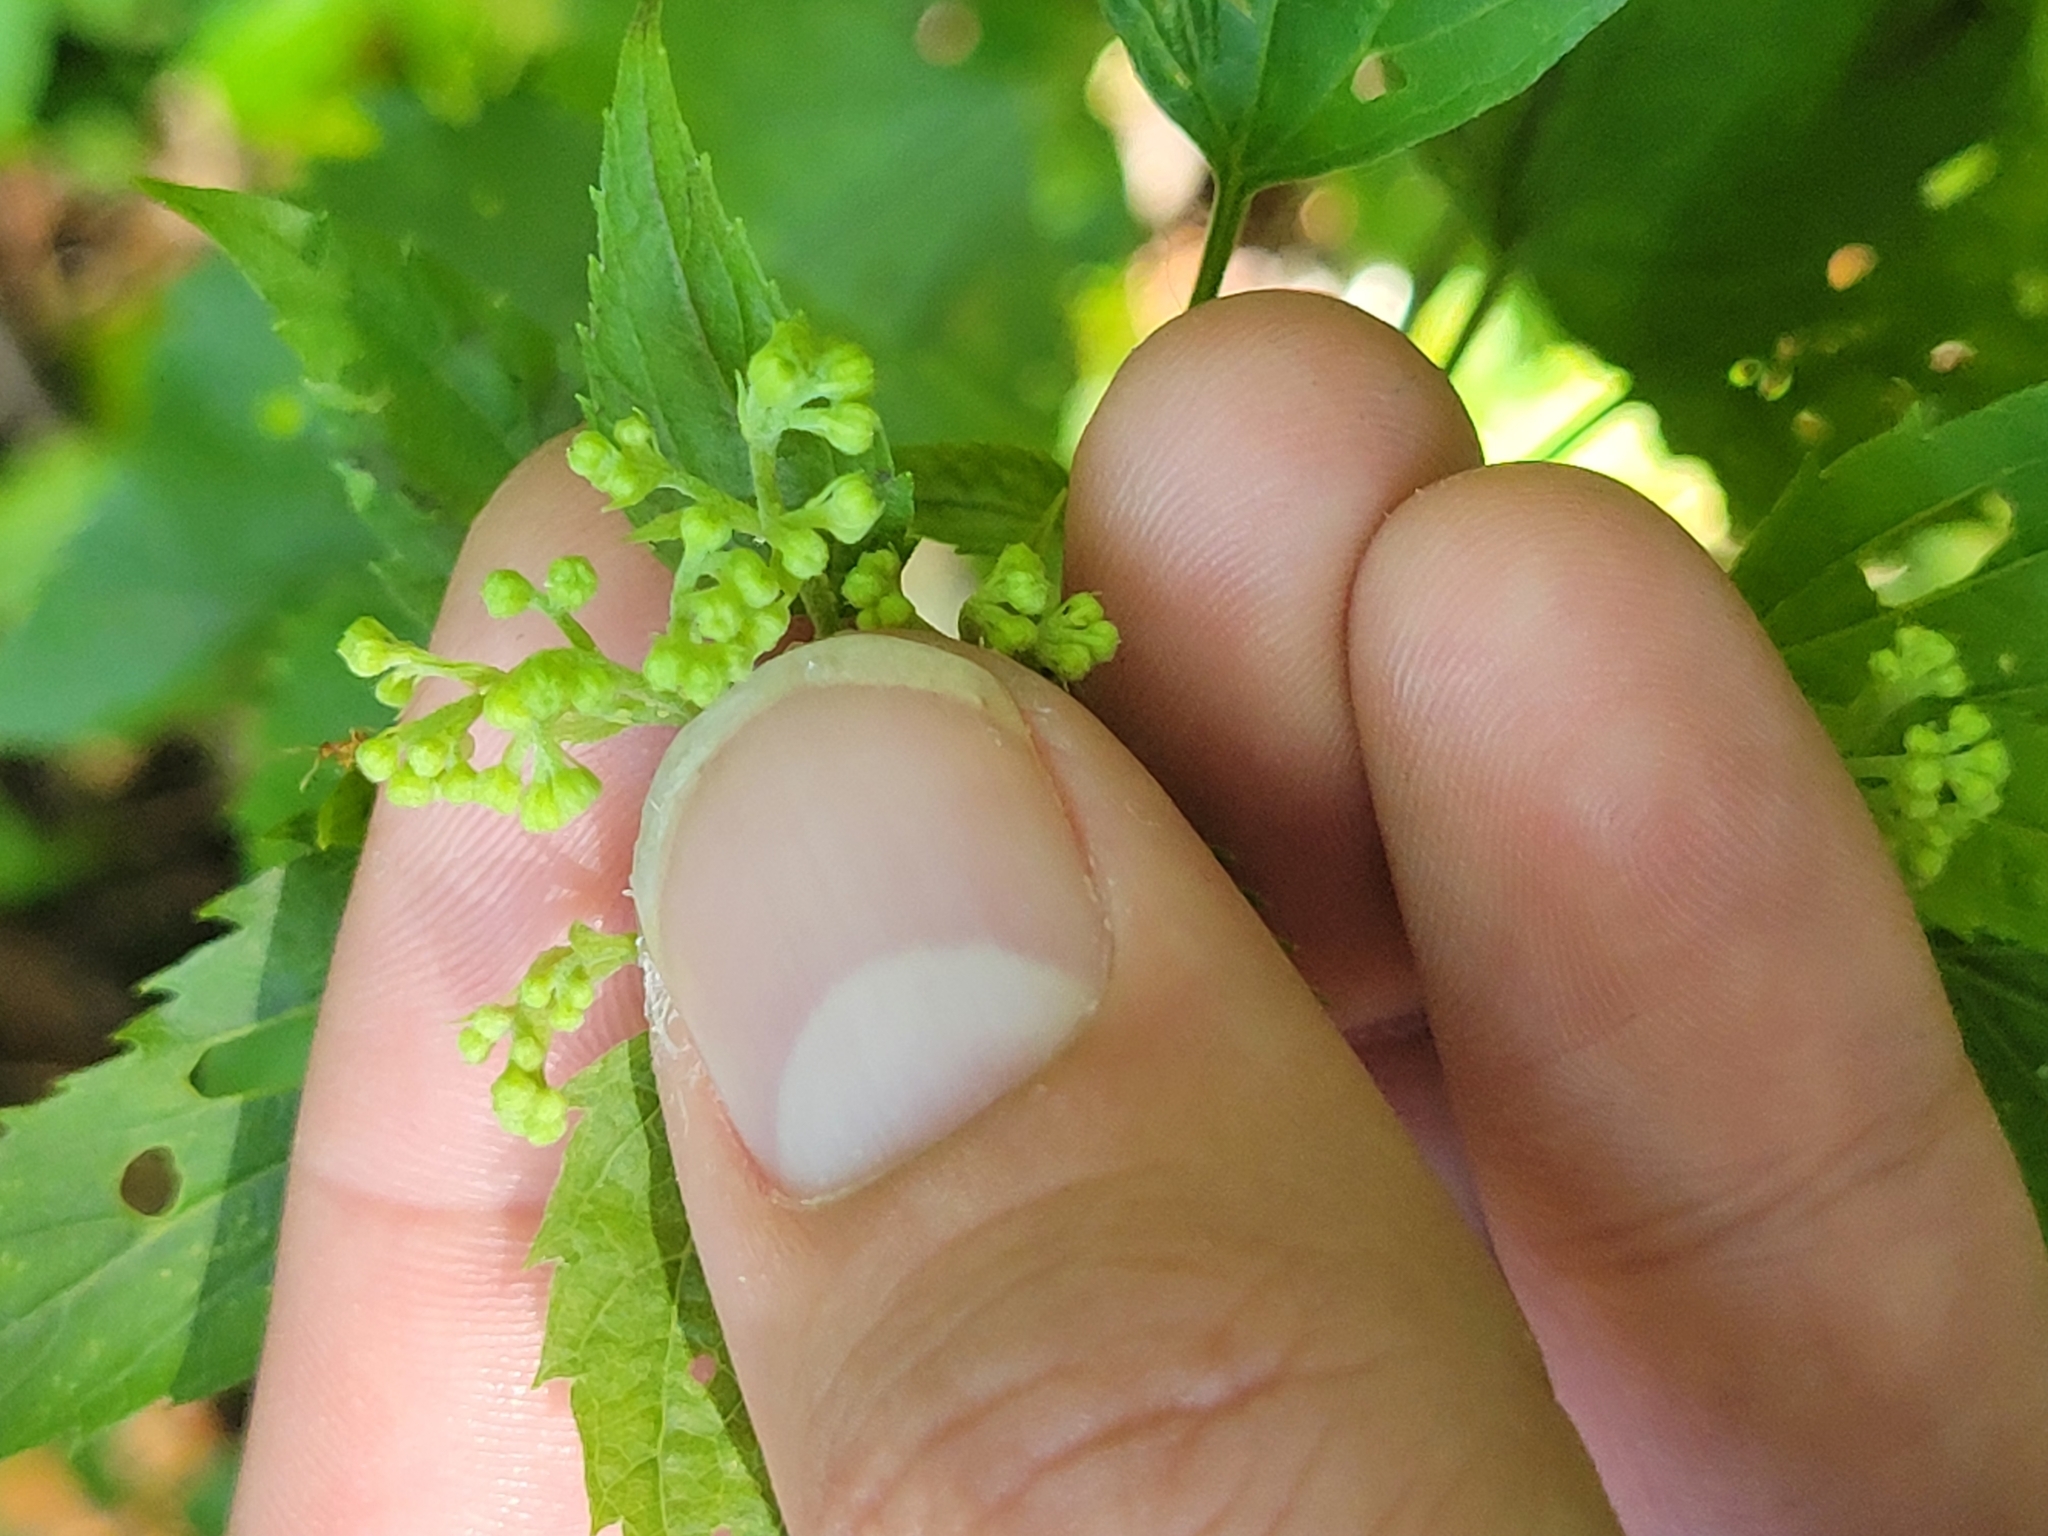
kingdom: Plantae
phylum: Tracheophyta
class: Magnoliopsida
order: Asterales
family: Asteraceae
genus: Ageratina
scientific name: Ageratina altissima
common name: White snakeroot
